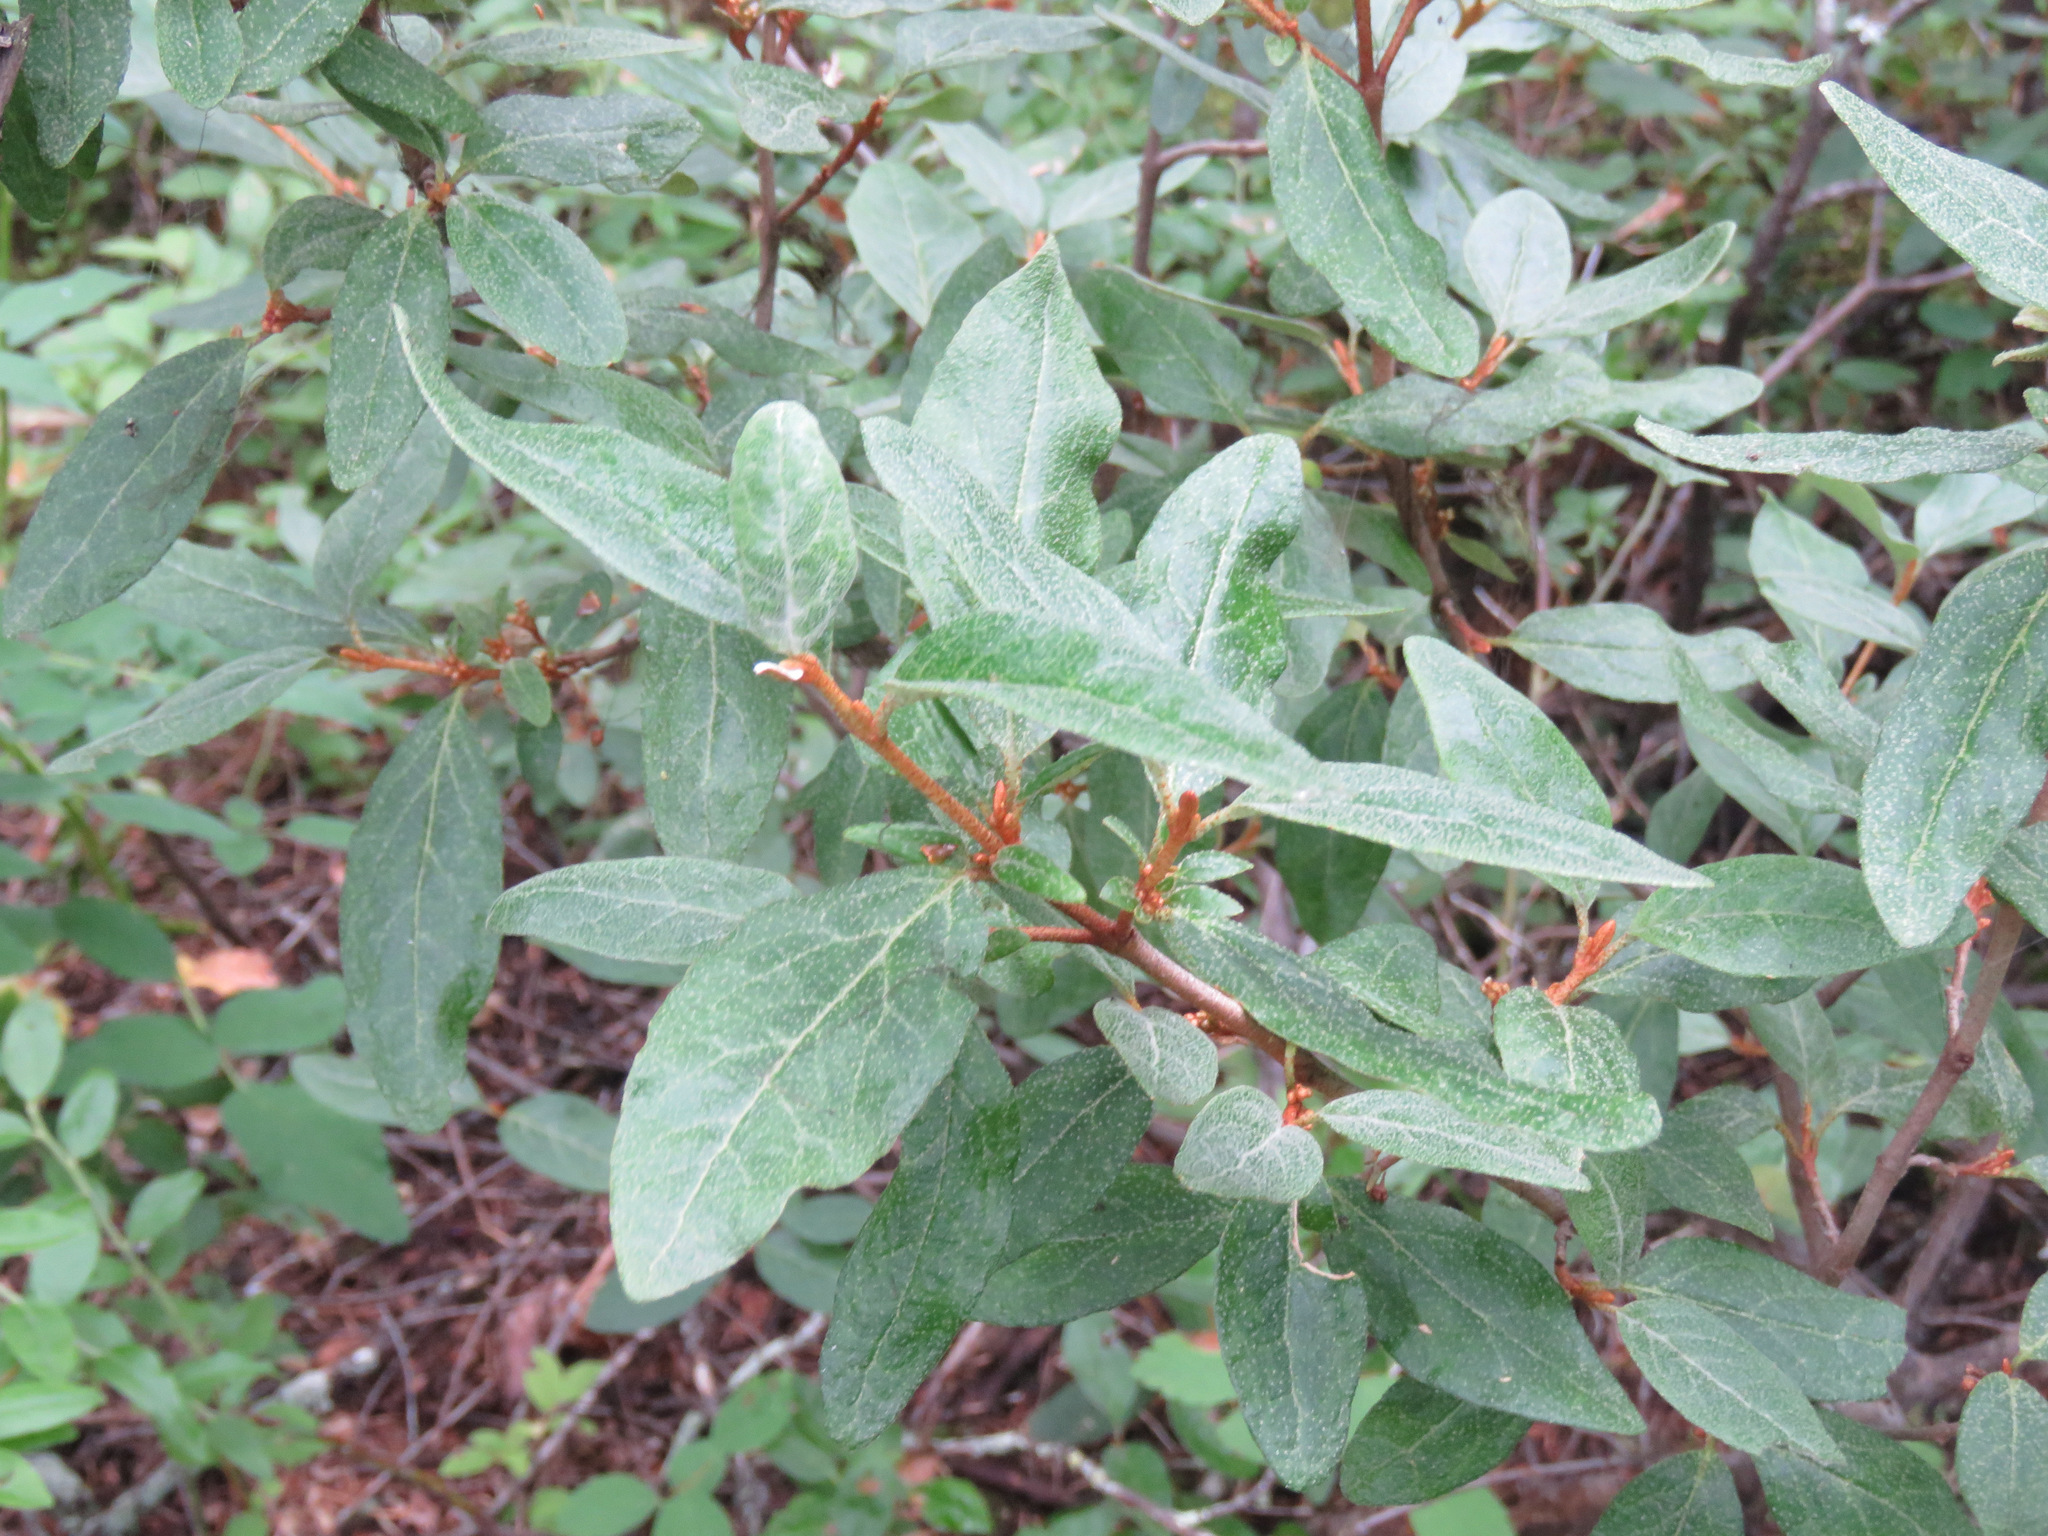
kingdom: Plantae
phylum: Tracheophyta
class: Magnoliopsida
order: Rosales
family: Elaeagnaceae
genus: Shepherdia
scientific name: Shepherdia canadensis
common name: Soapberry
